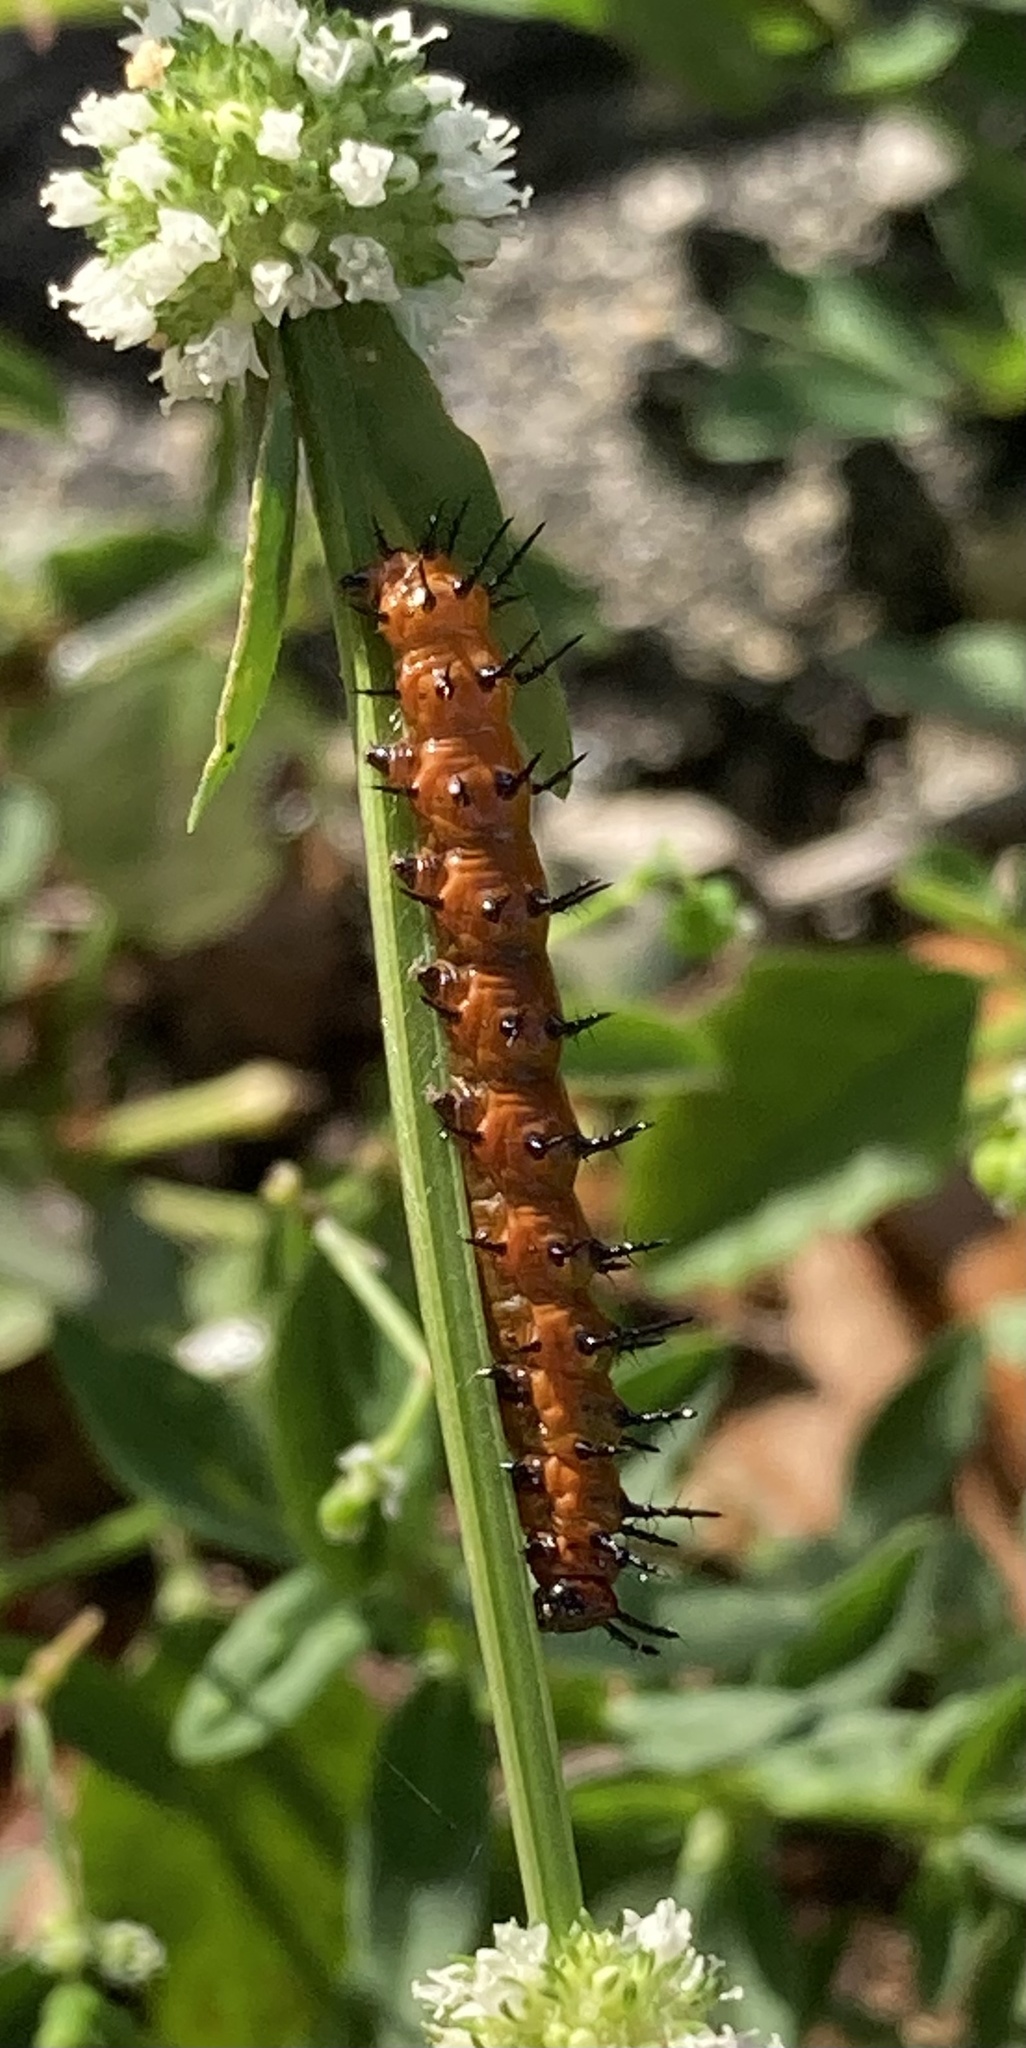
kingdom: Animalia
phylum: Arthropoda
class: Insecta
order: Lepidoptera
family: Nymphalidae
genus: Dione
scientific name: Dione vanillae
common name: Gulf fritillary
